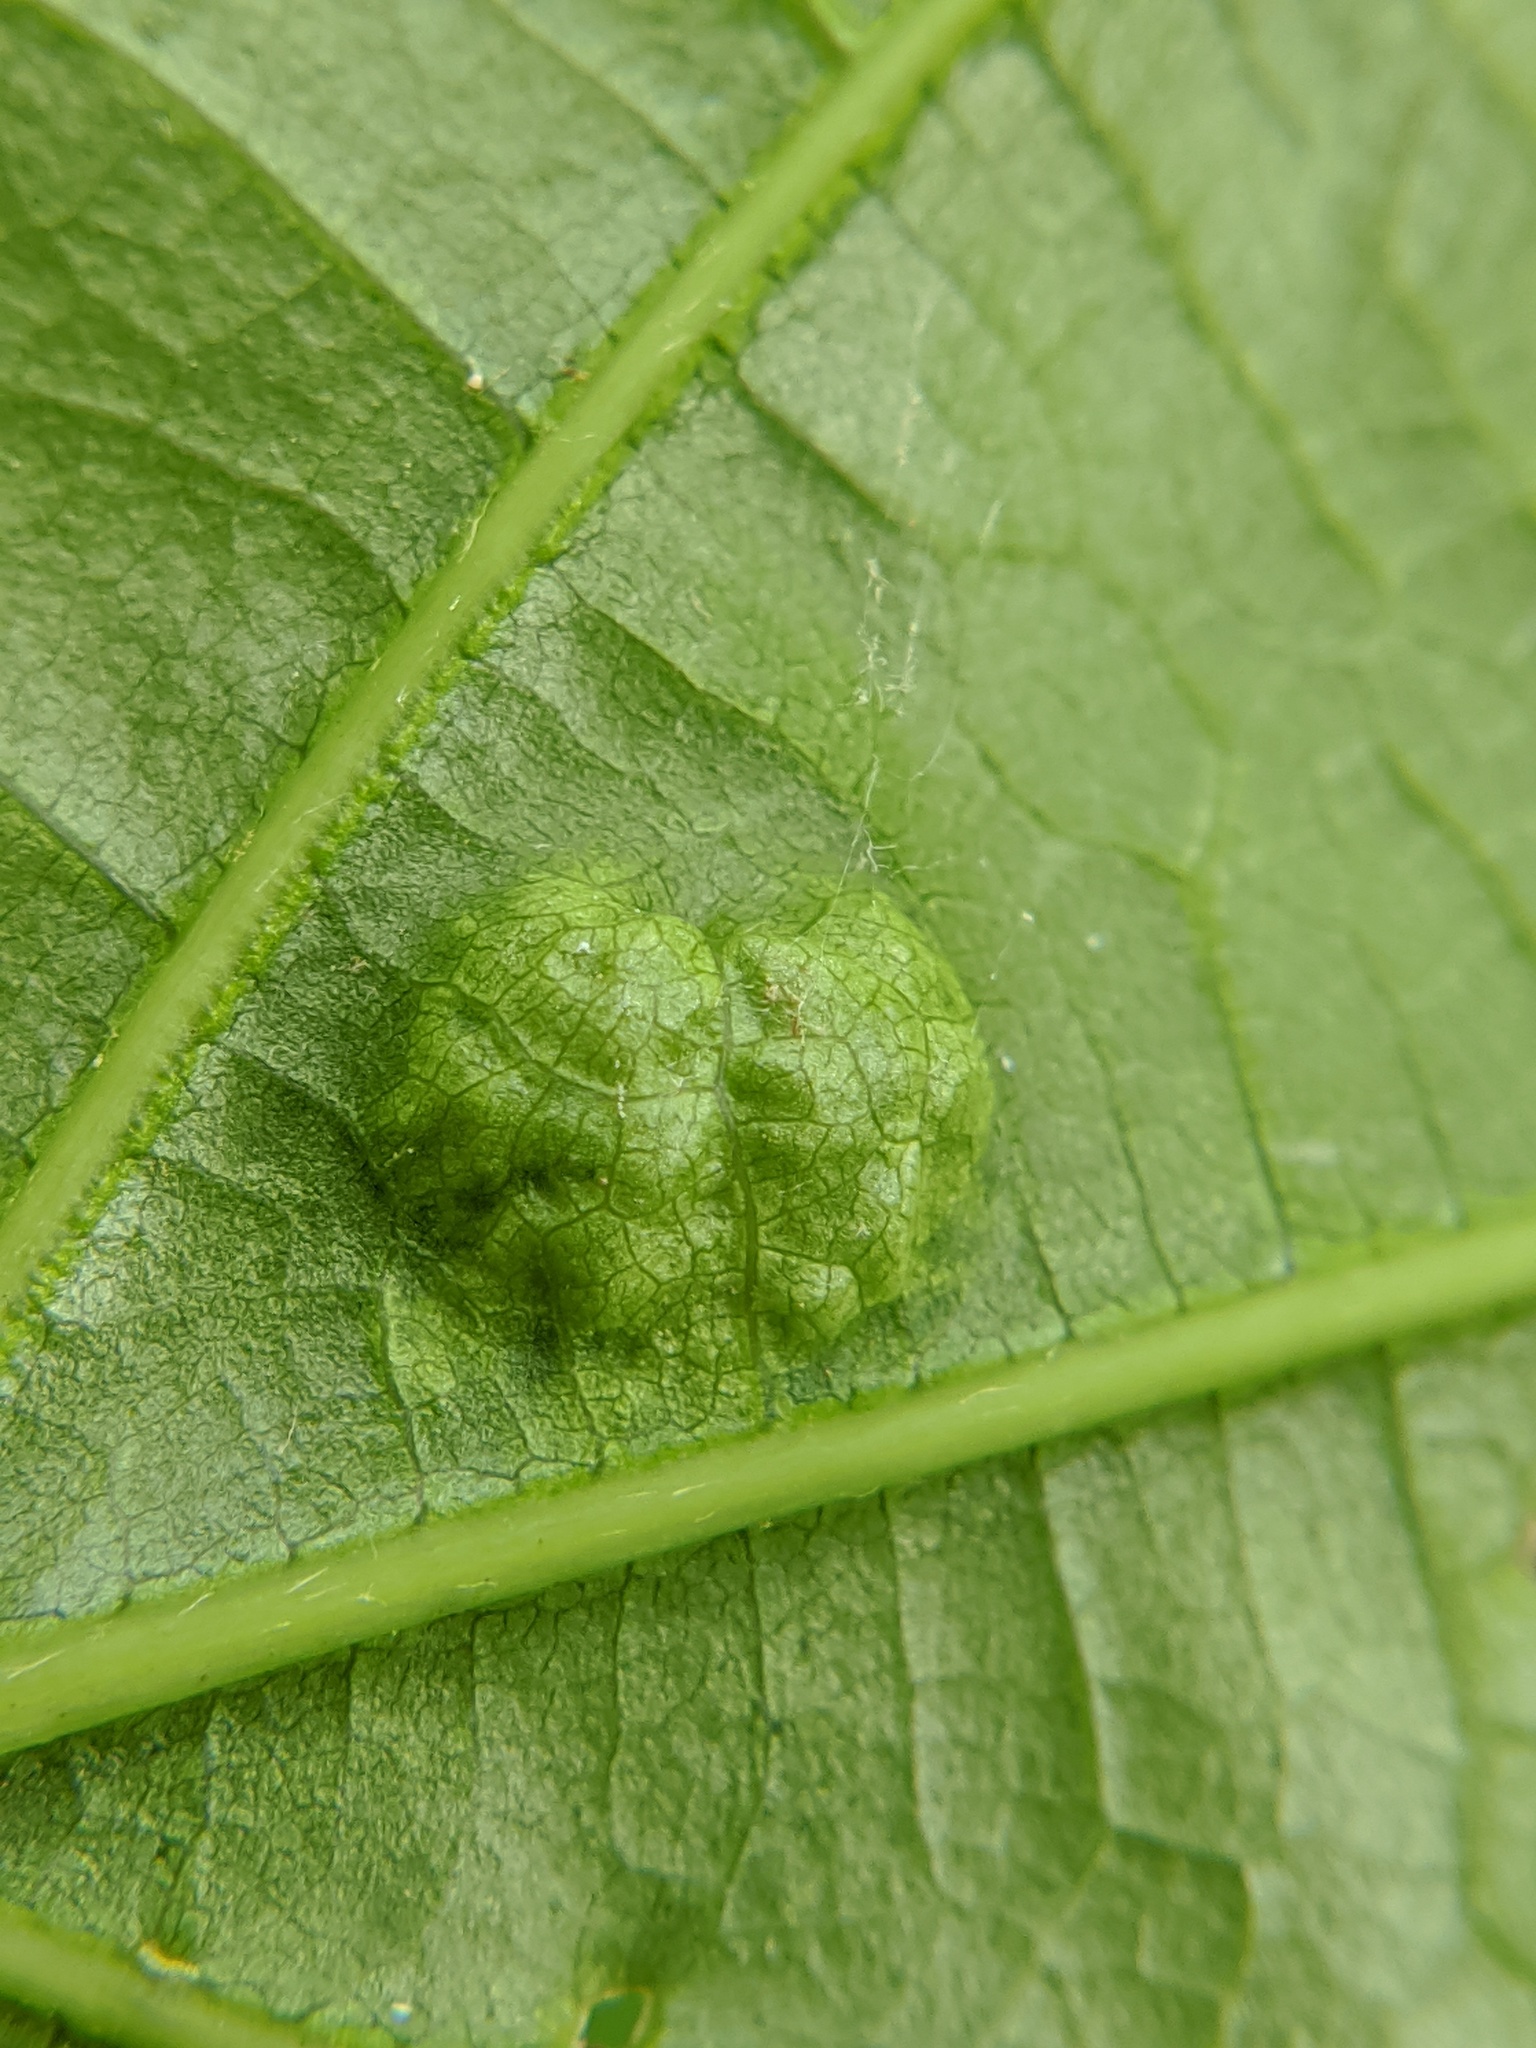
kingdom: Fungi
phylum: Ascomycota
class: Taphrinomycetes
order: Taphrinales
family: Taphrinaceae
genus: Taphrina
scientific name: Taphrina caerulescens
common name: Oak leaf blister
